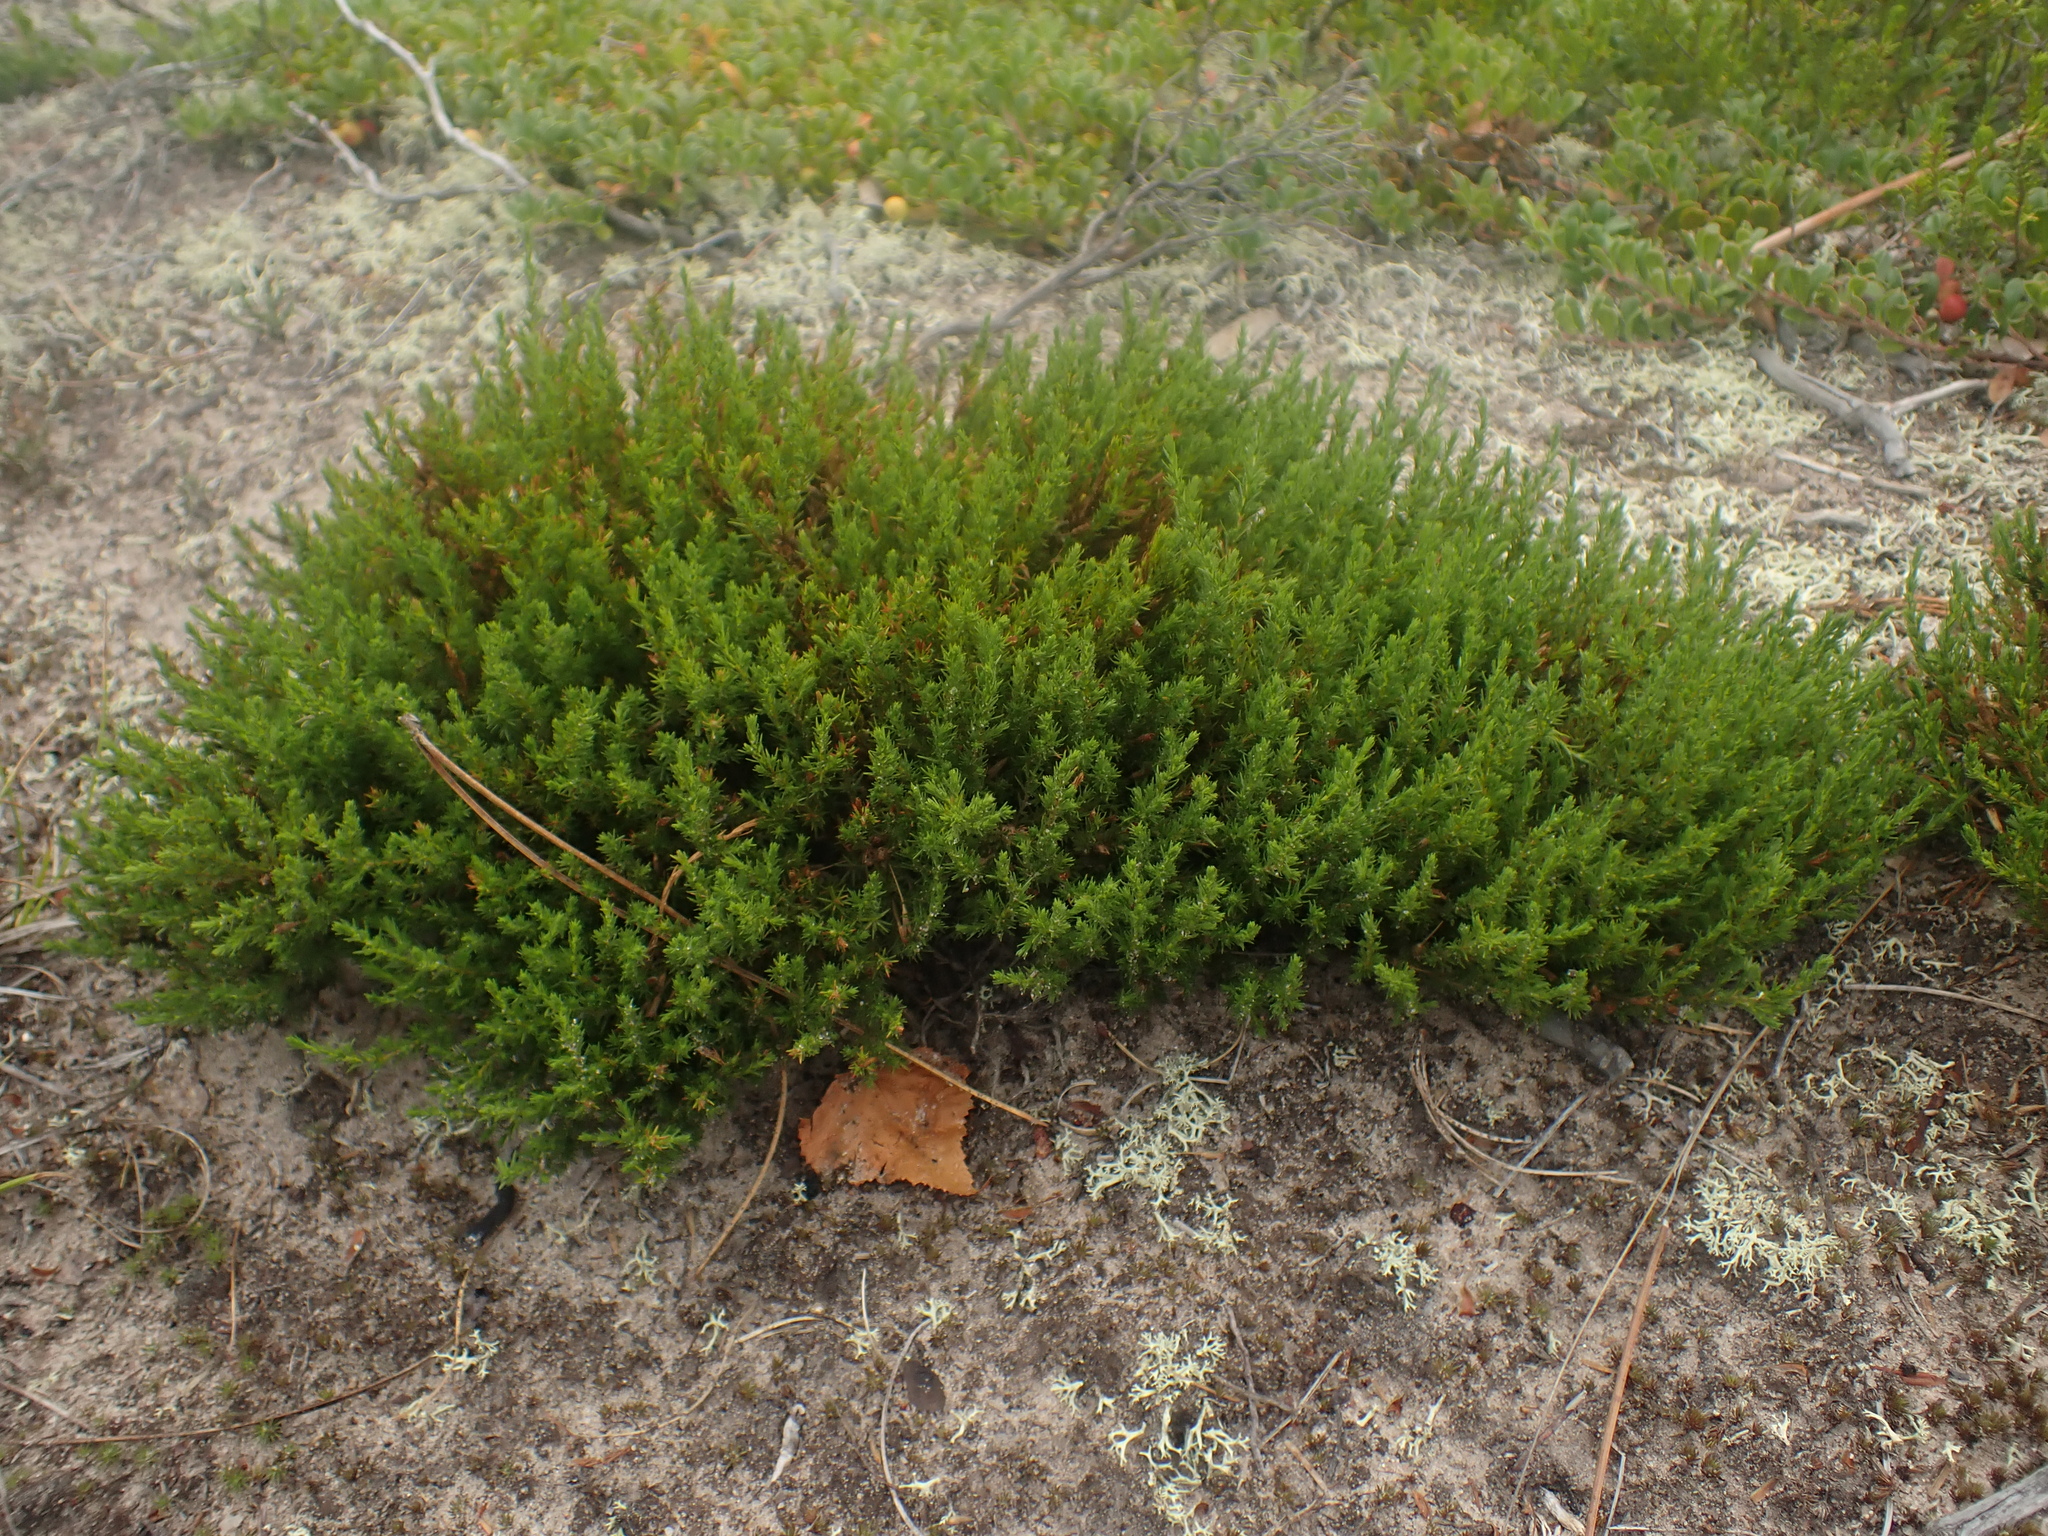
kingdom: Plantae
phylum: Tracheophyta
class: Magnoliopsida
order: Malvales
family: Cistaceae
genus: Hudsonia
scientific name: Hudsonia ericoides
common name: Golden-heather
